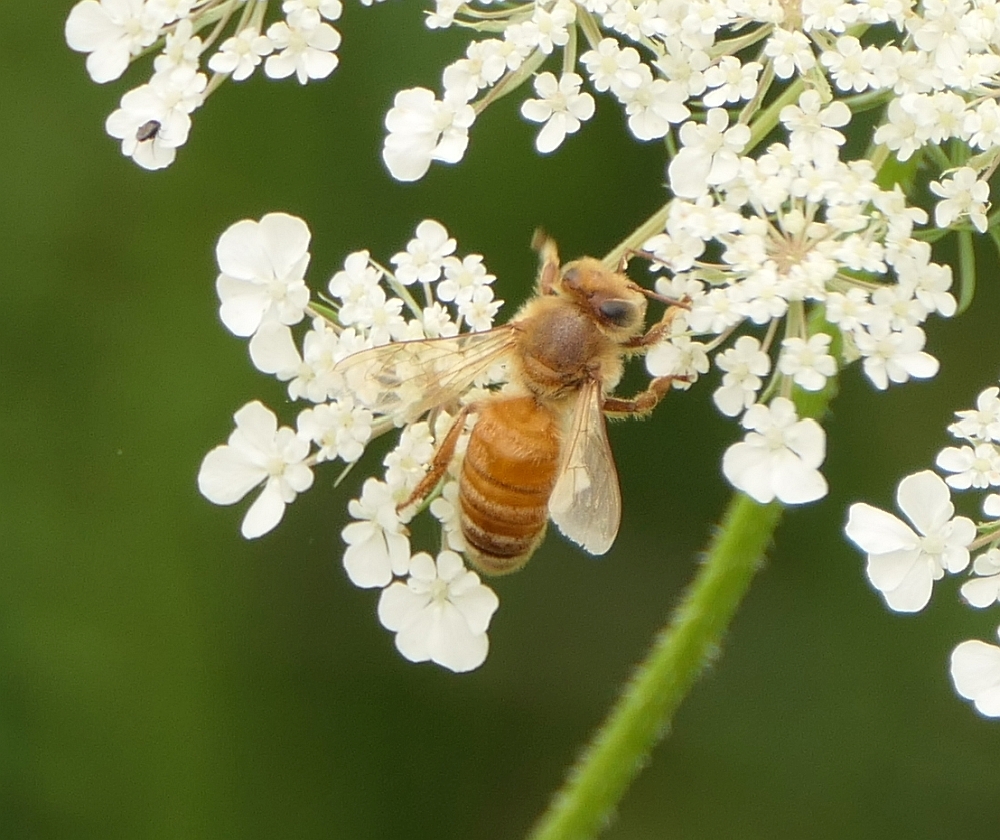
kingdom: Animalia
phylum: Arthropoda
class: Insecta
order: Hymenoptera
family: Apidae
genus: Apis
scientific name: Apis mellifera
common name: Honey bee
